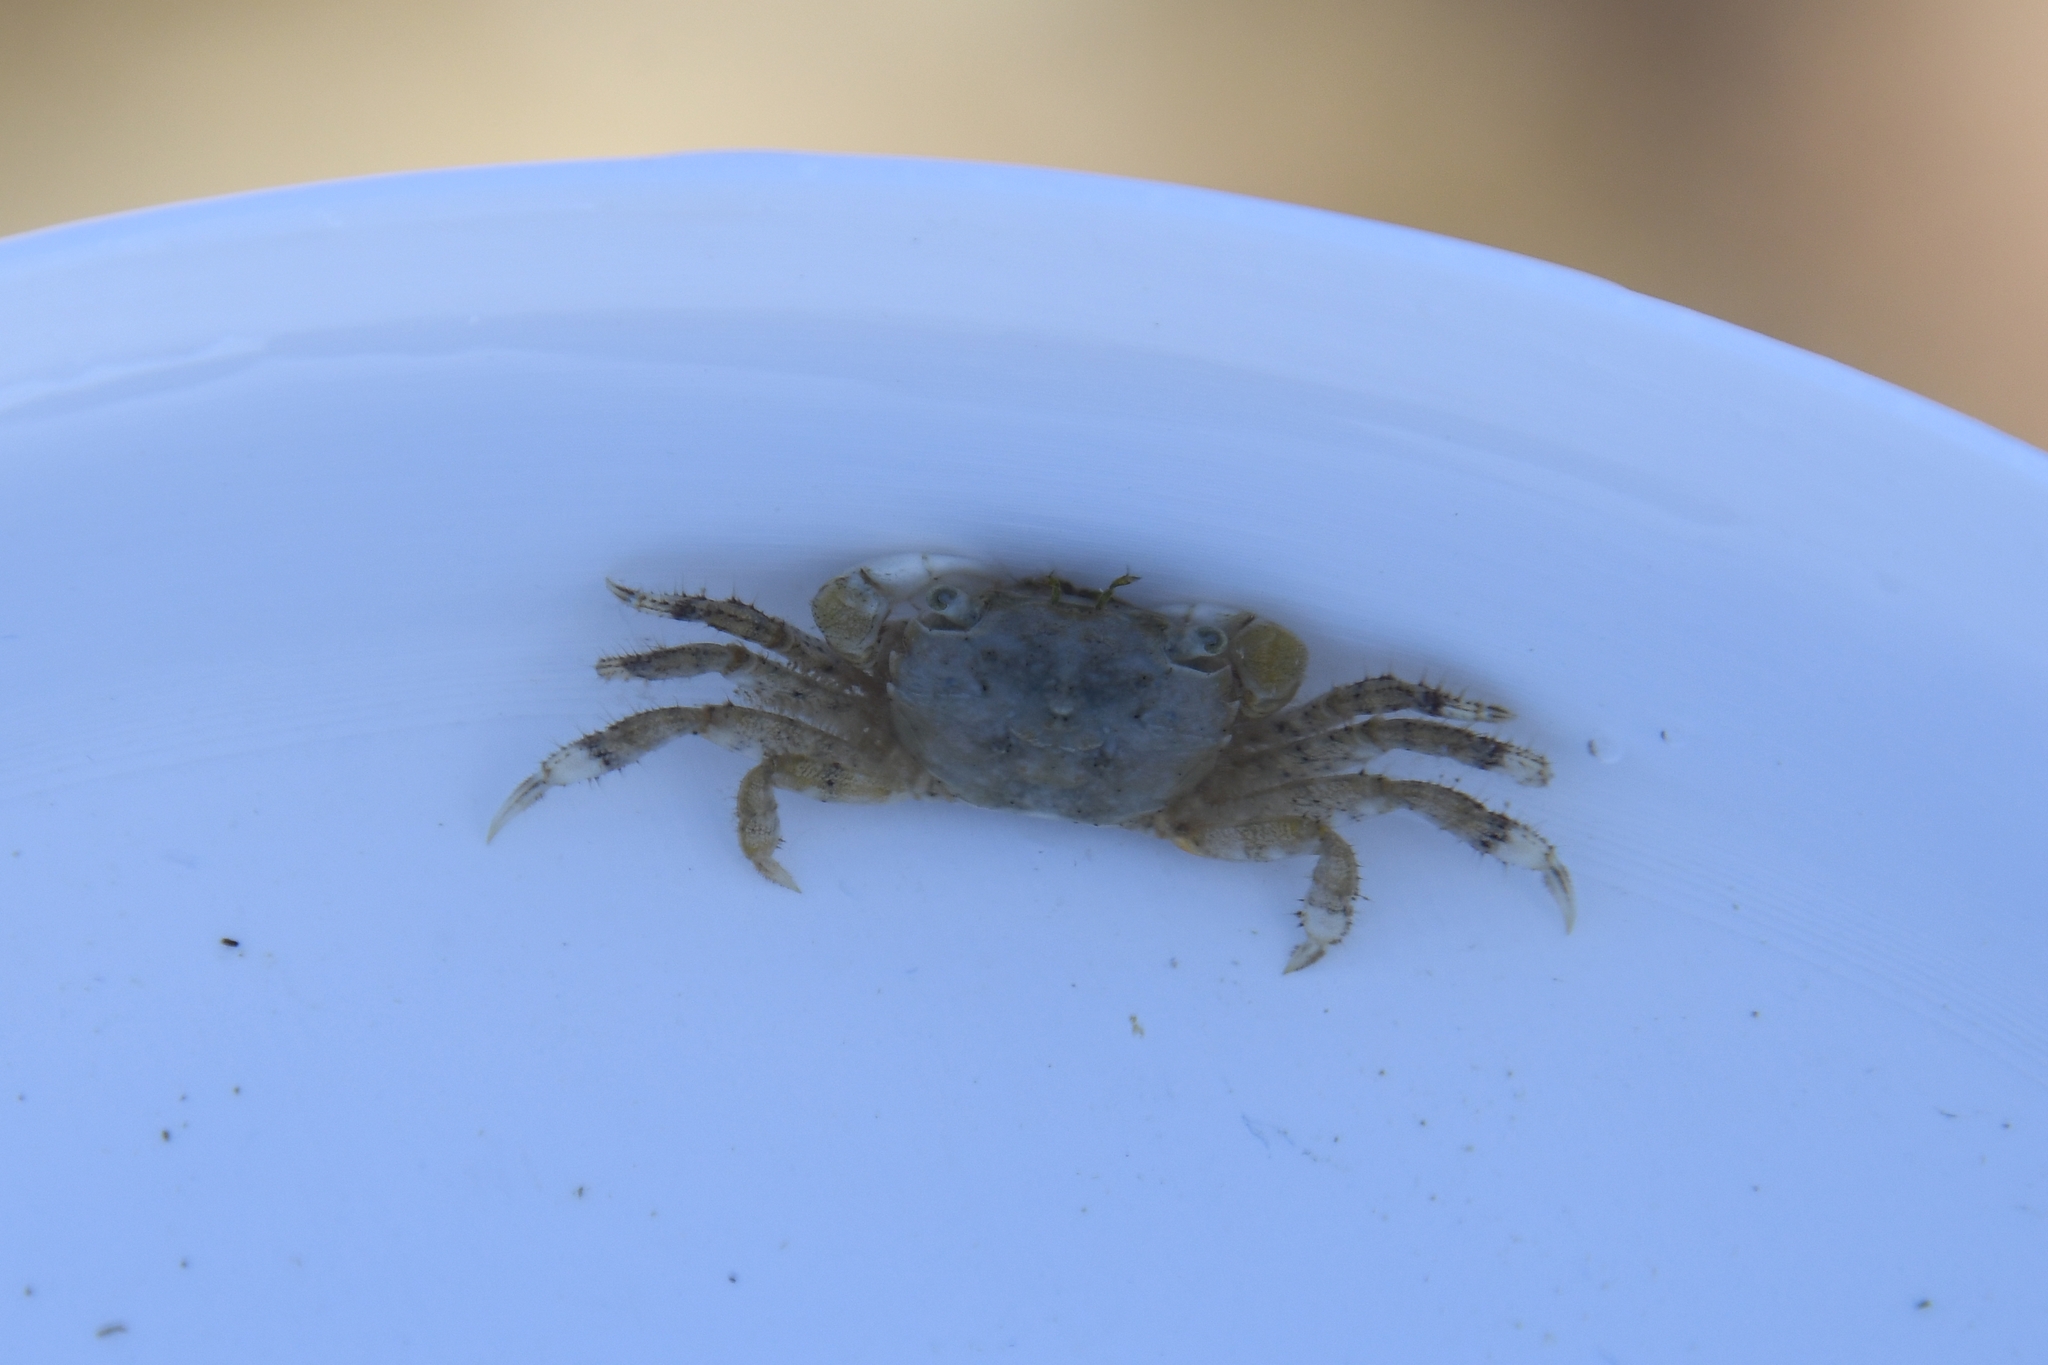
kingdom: Animalia
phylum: Arthropoda
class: Malacostraca
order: Decapoda
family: Varunidae
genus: Hemigrapsus
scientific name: Hemigrapsus oregonensis
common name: Yellow shore crab
